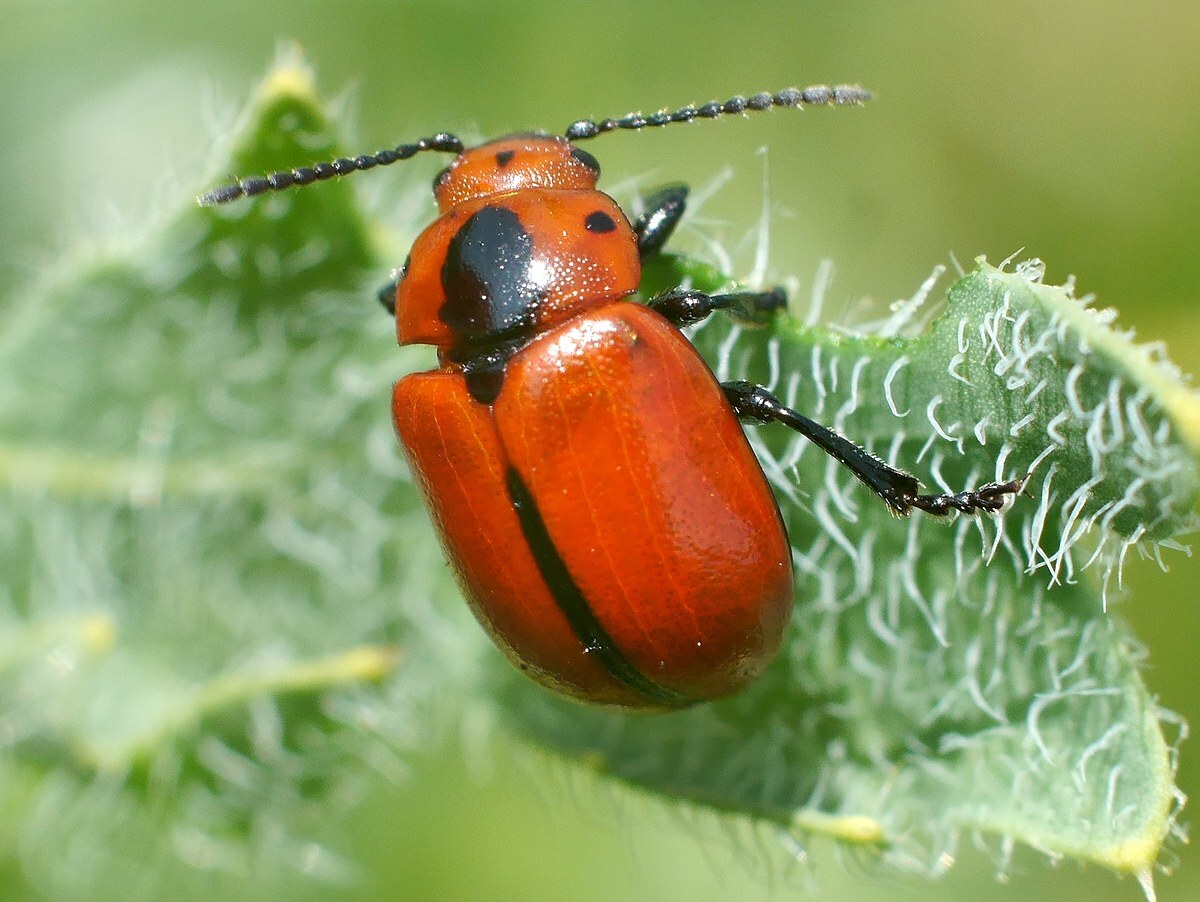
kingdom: Animalia
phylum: Arthropoda
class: Insecta
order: Coleoptera
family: Chrysomelidae
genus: Entomoscelis
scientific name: Entomoscelis suturalis
